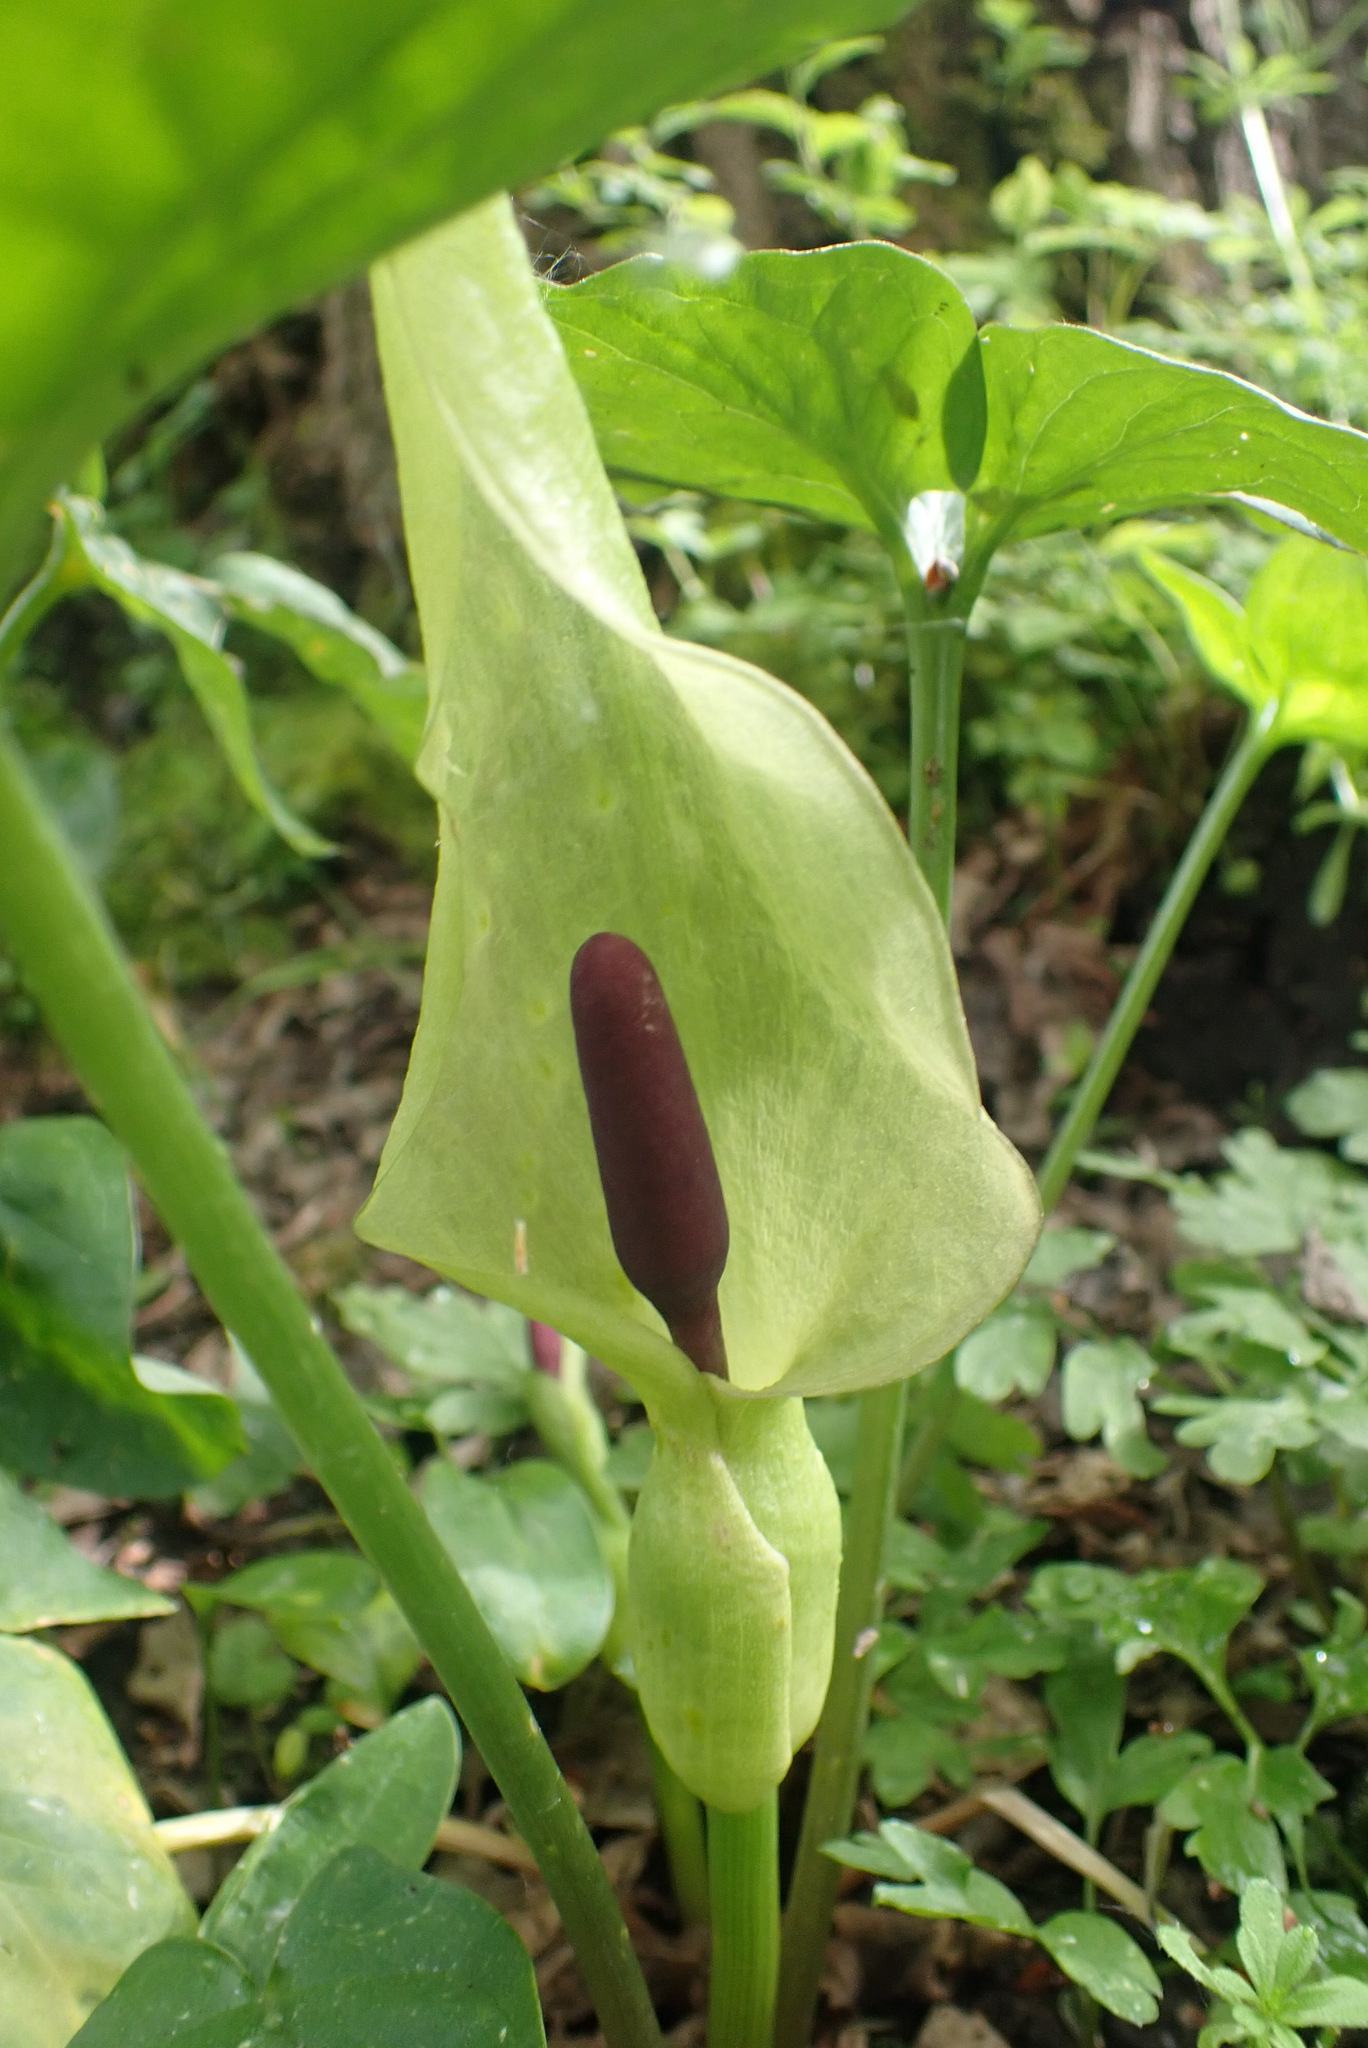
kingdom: Plantae
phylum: Tracheophyta
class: Liliopsida
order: Alismatales
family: Araceae
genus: Arum
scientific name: Arum maculatum
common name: Lords-and-ladies
